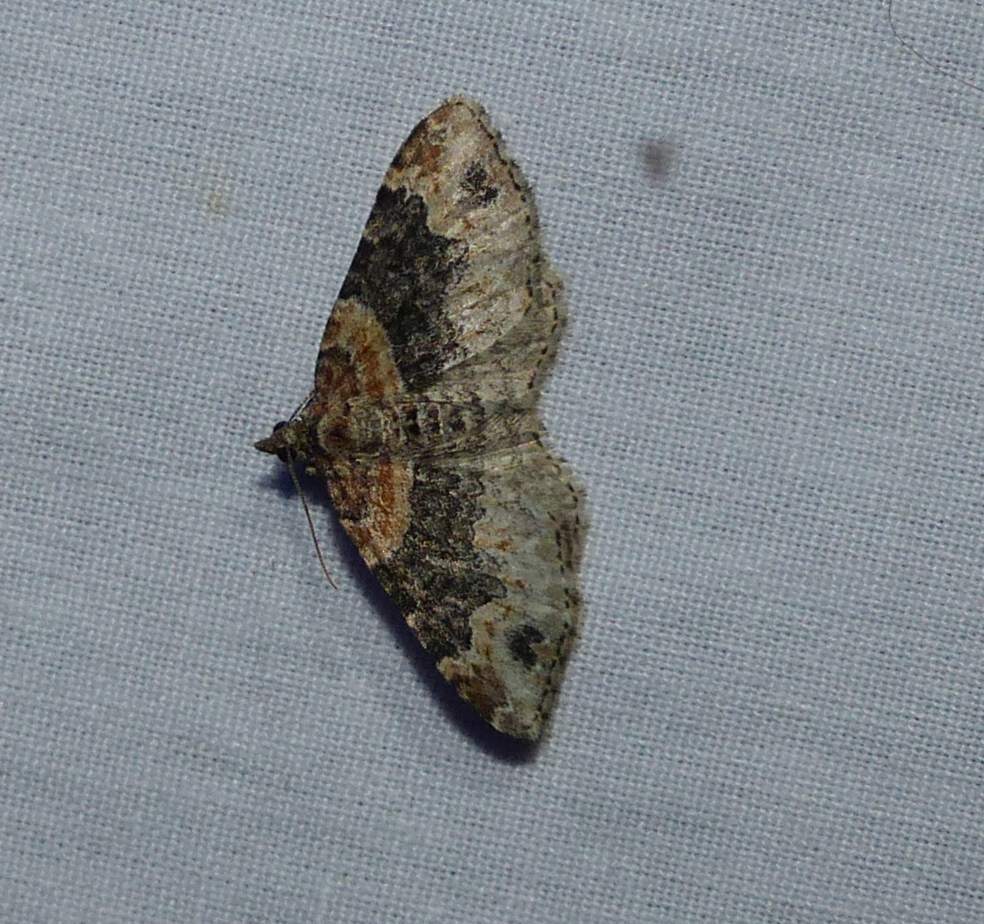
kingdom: Animalia
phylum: Arthropoda
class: Insecta
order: Lepidoptera
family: Geometridae
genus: Xanthorhoe
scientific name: Xanthorhoe ferrugata
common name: Dark-barred twin-spot carpet
